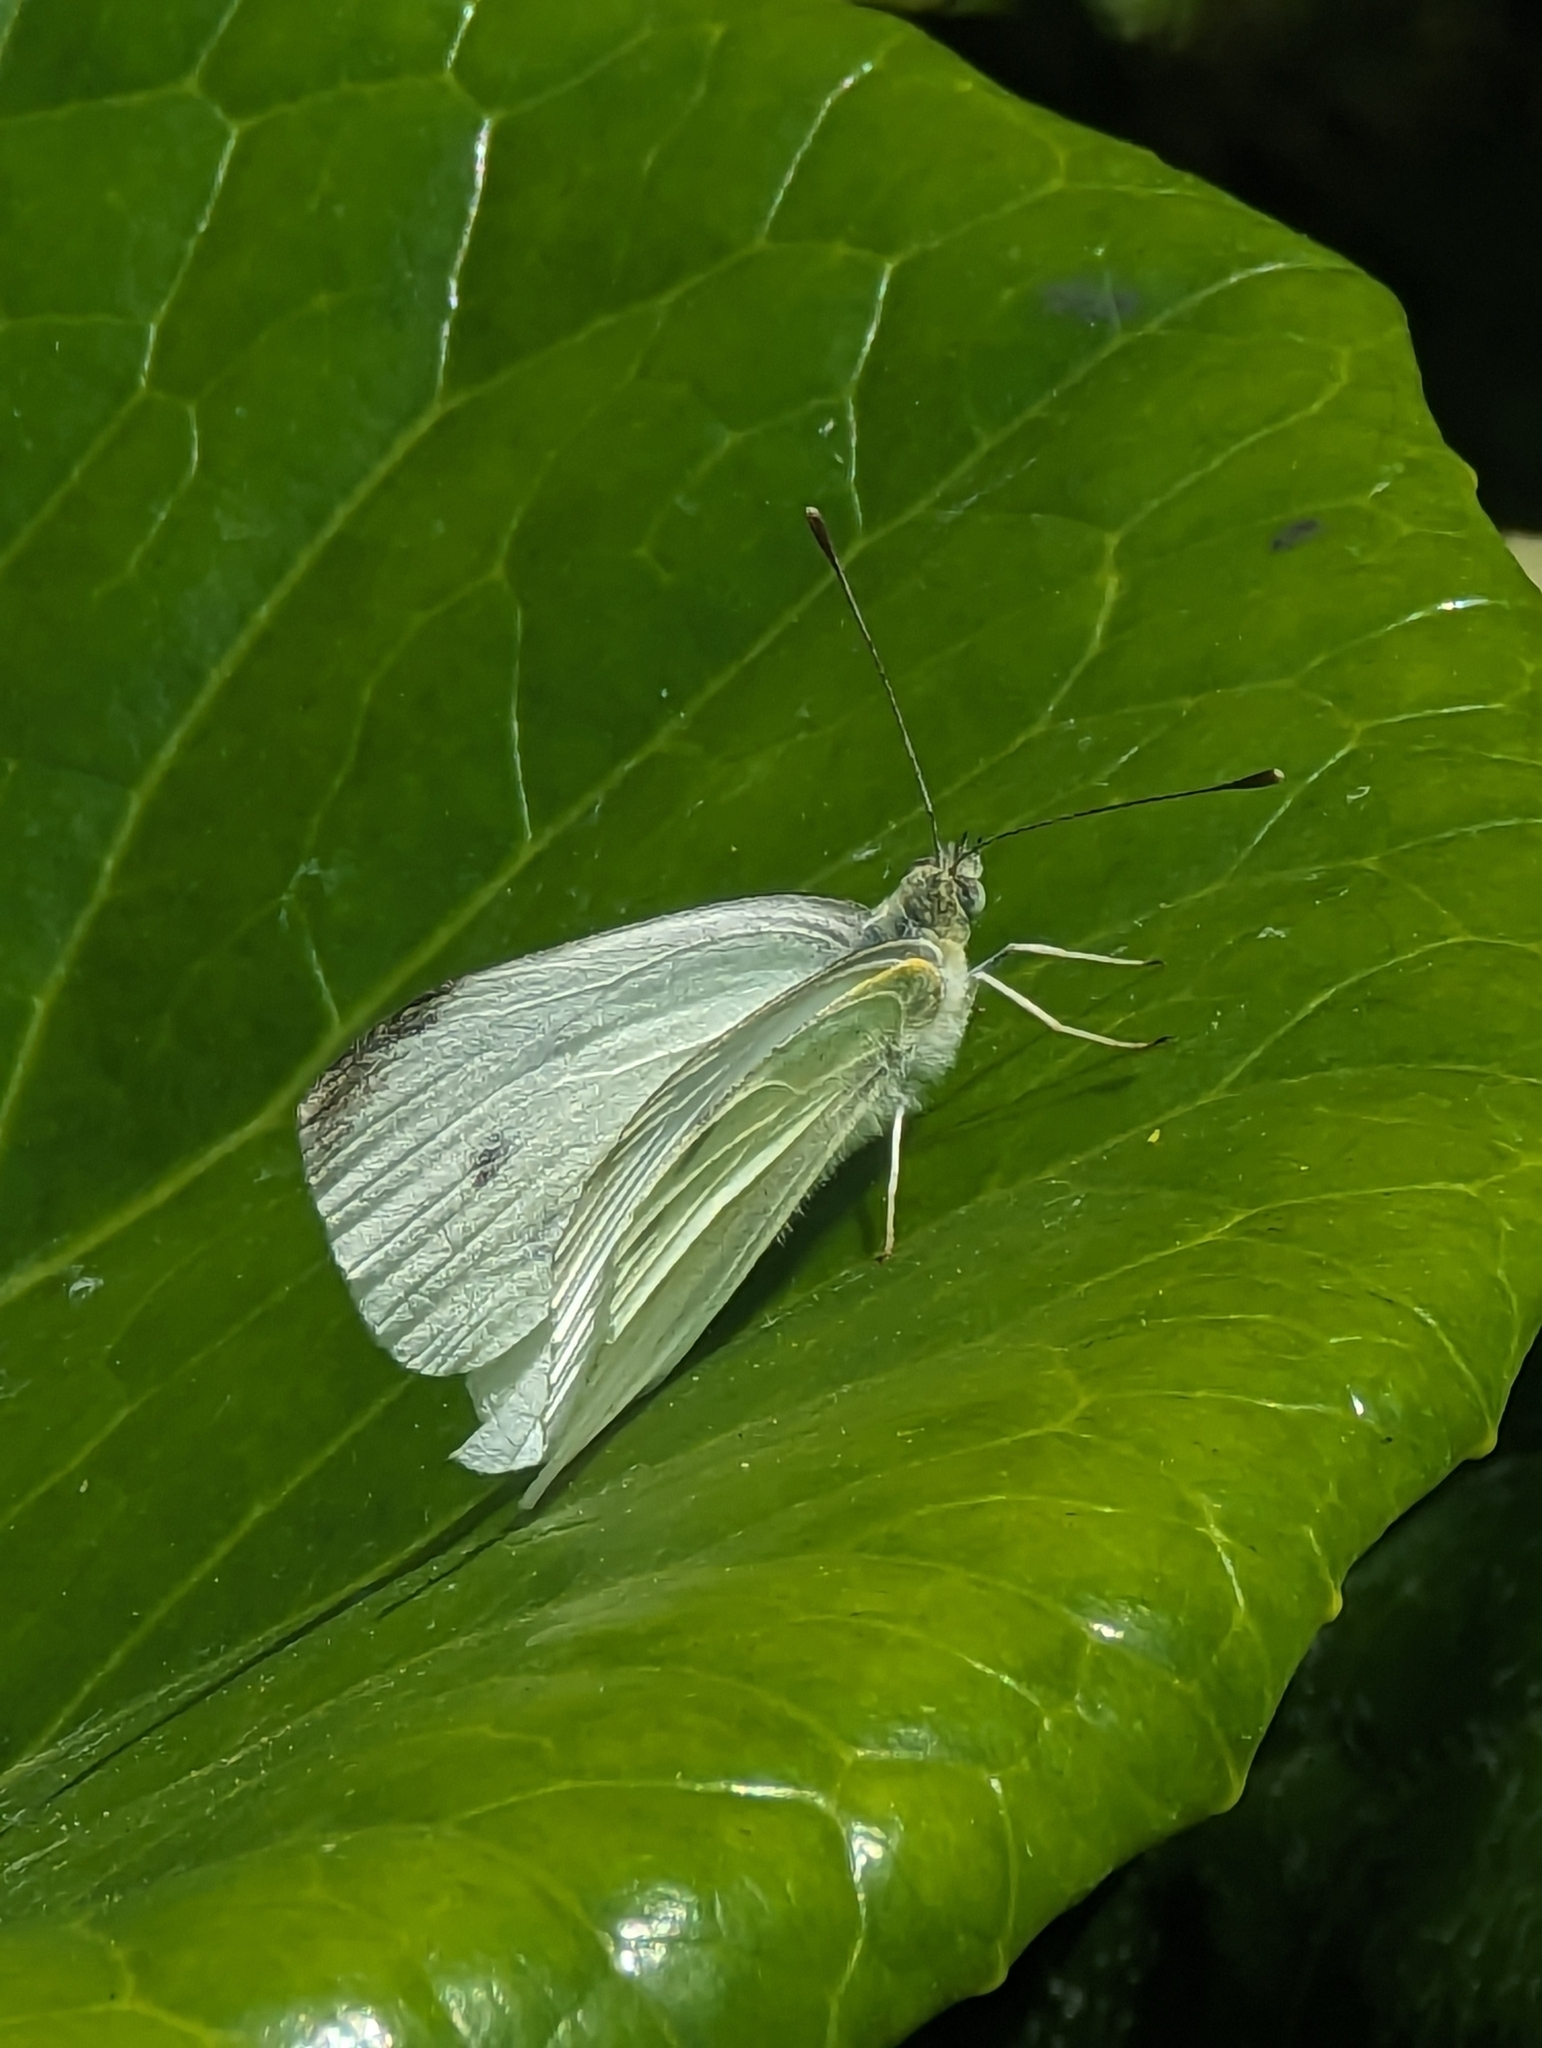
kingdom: Animalia
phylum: Arthropoda
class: Insecta
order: Lepidoptera
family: Pieridae
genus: Pieris
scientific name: Pieris rapae
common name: Small white
